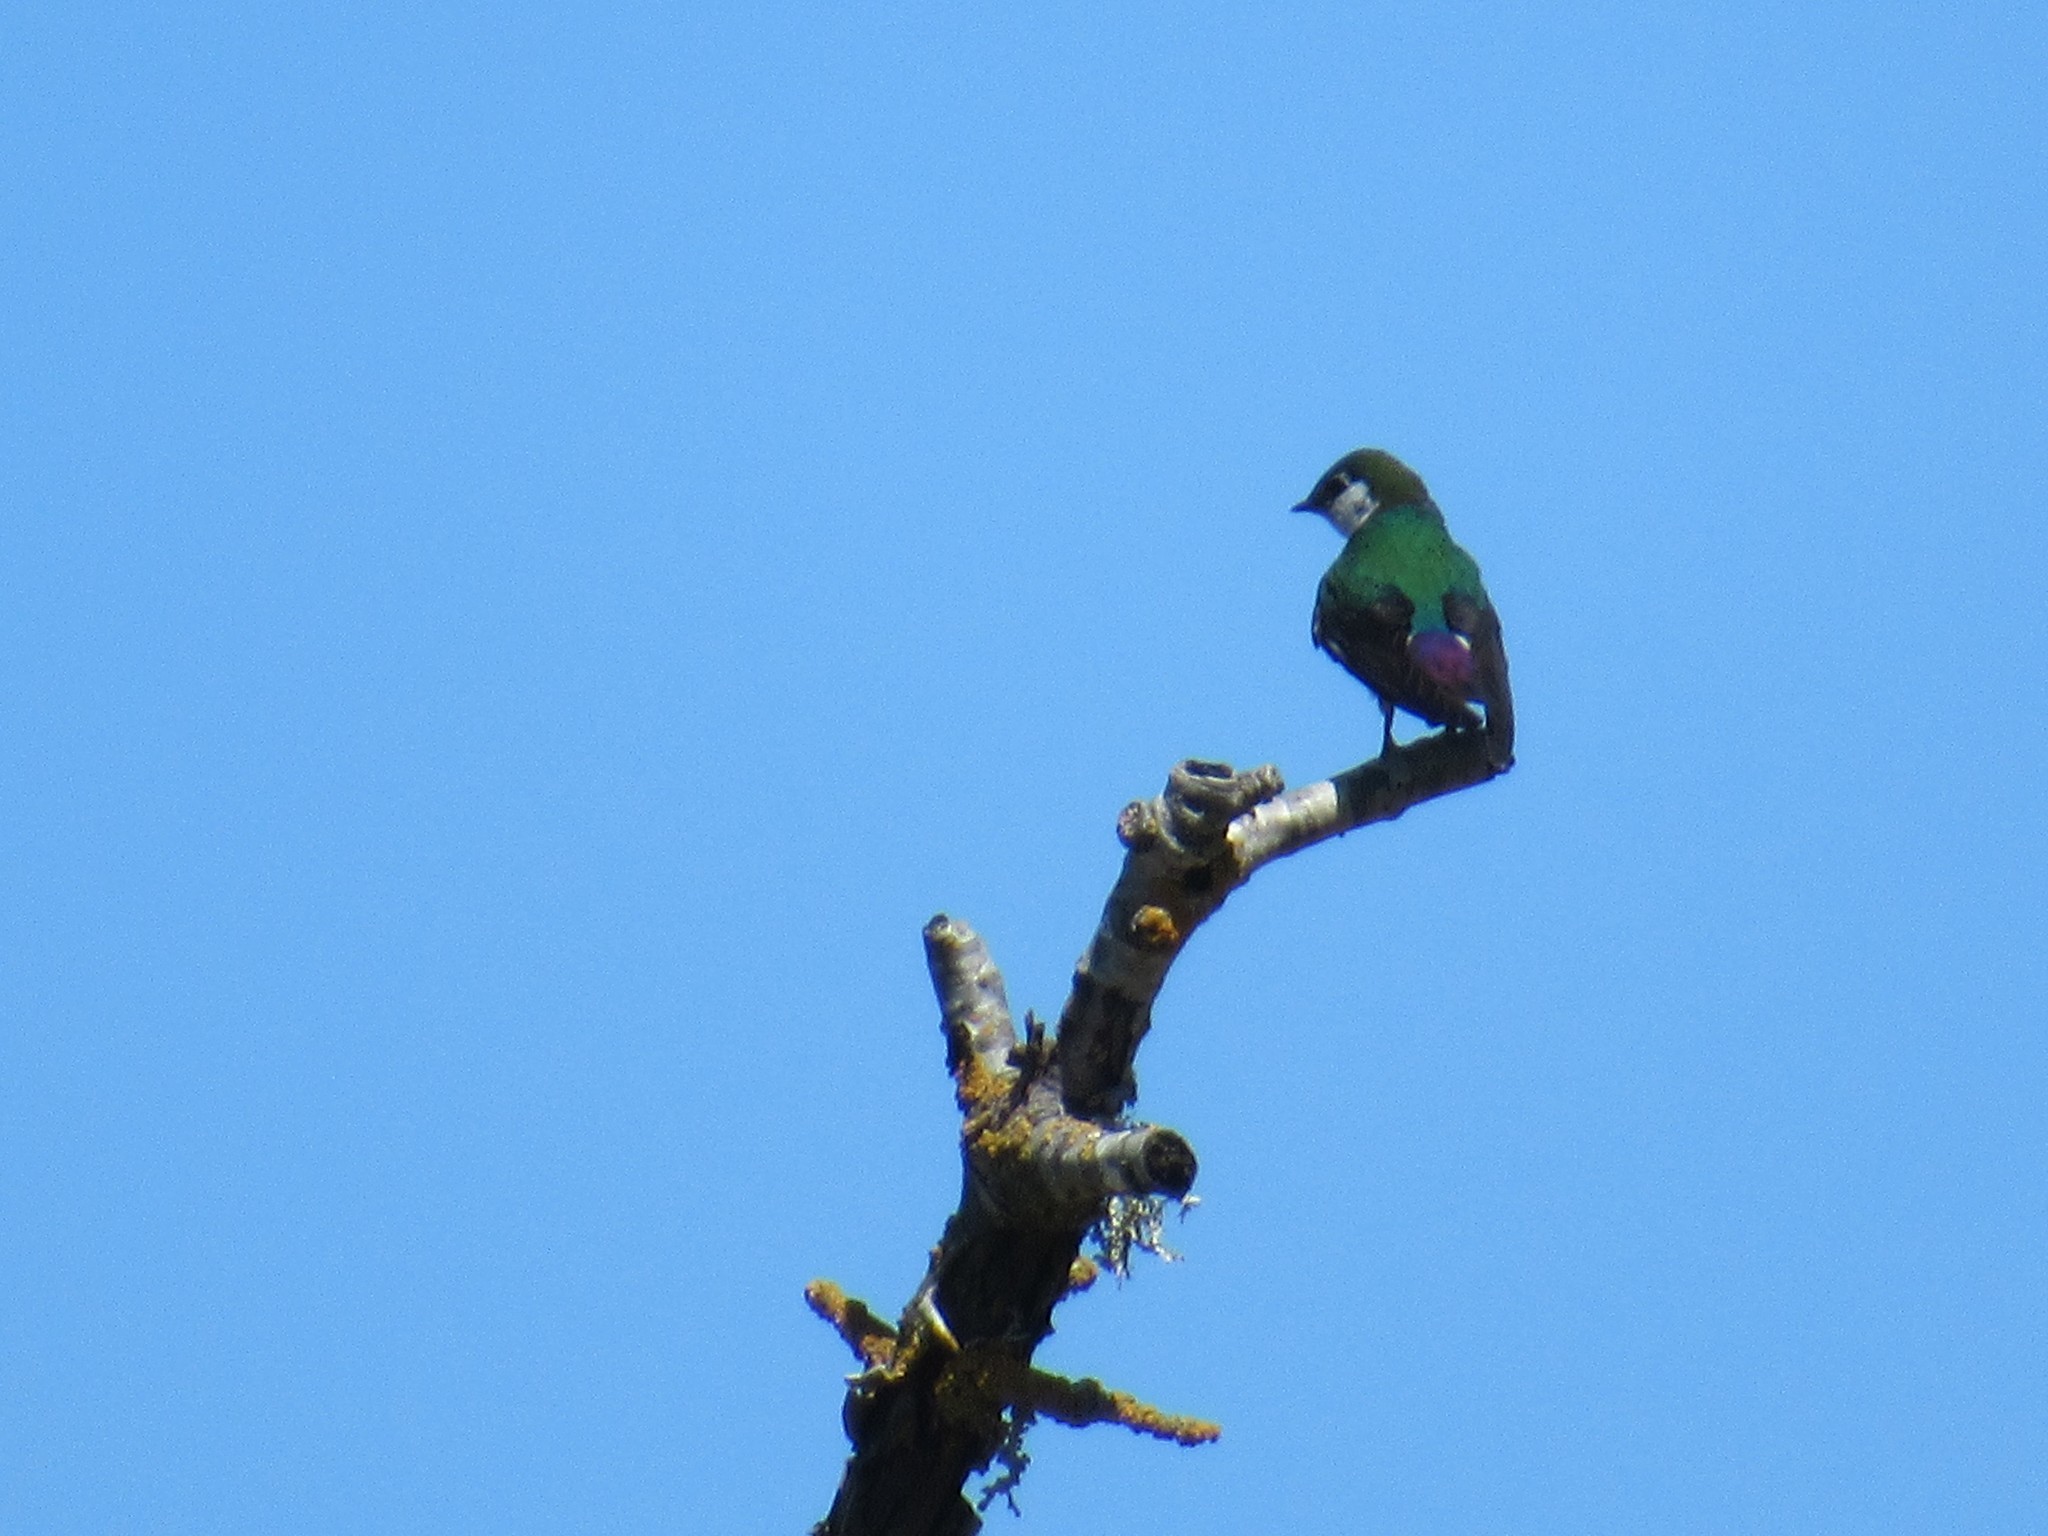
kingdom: Animalia
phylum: Chordata
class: Aves
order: Passeriformes
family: Hirundinidae
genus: Tachycineta
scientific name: Tachycineta thalassina
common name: Violet-green swallow
